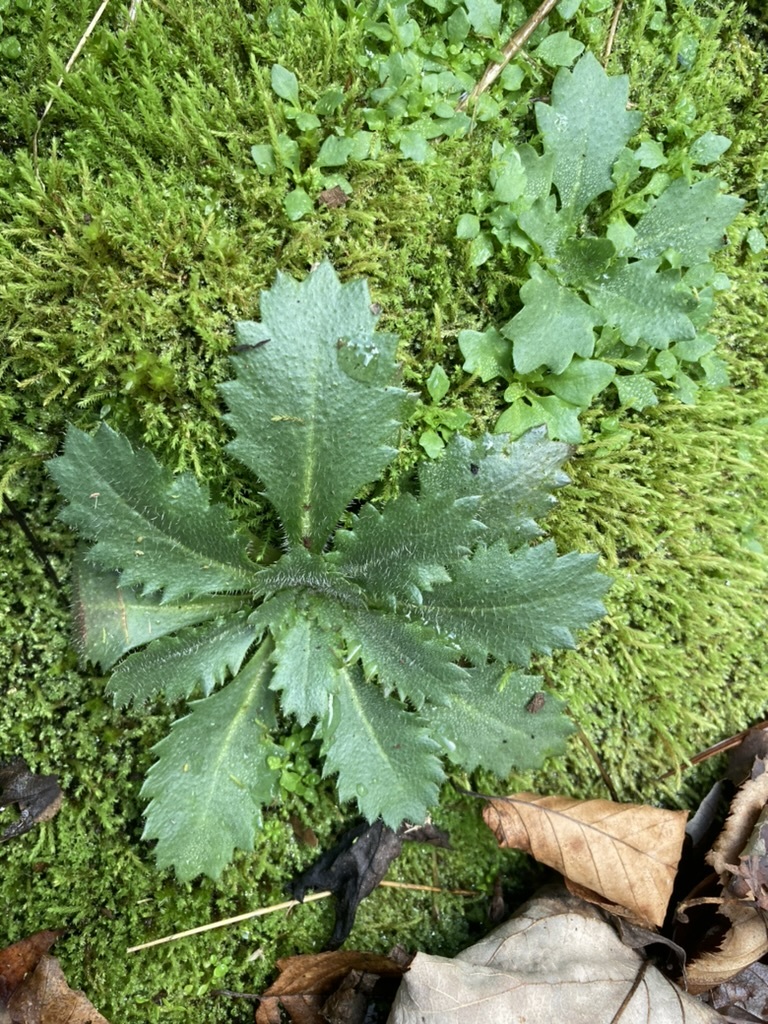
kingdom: Plantae
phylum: Tracheophyta
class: Magnoliopsida
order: Saxifragales
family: Saxifragaceae
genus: Micranthes
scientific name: Micranthes petiolaris
